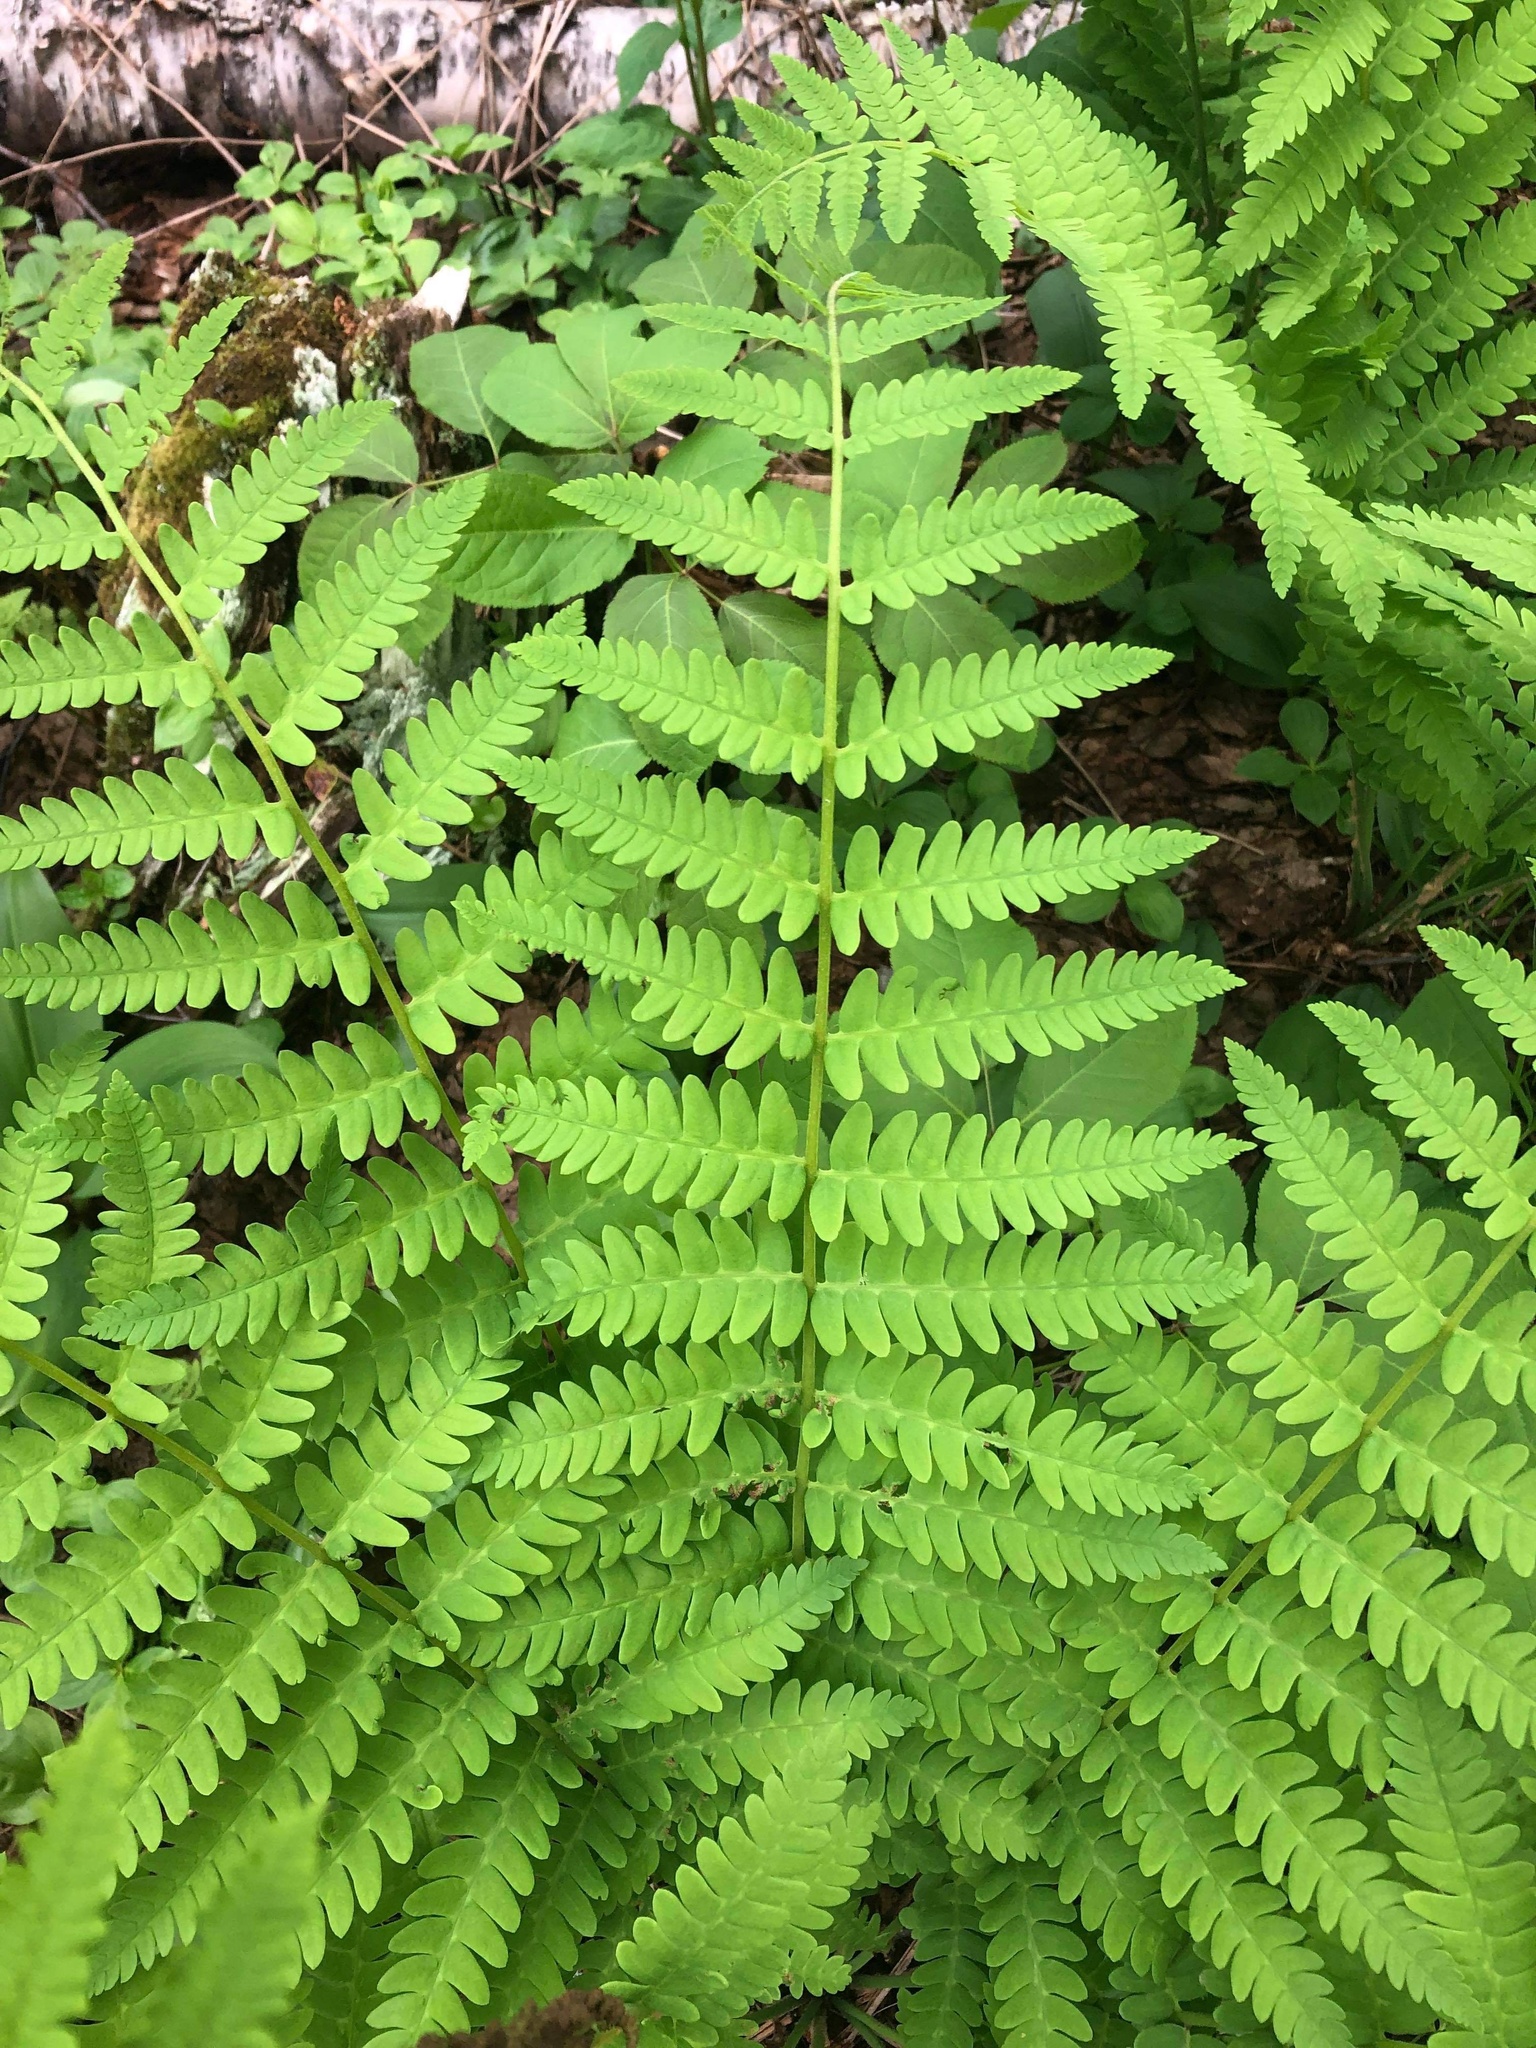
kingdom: Plantae
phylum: Tracheophyta
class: Polypodiopsida
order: Osmundales
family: Osmundaceae
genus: Claytosmunda
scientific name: Claytosmunda claytoniana
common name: Clayton's fern
